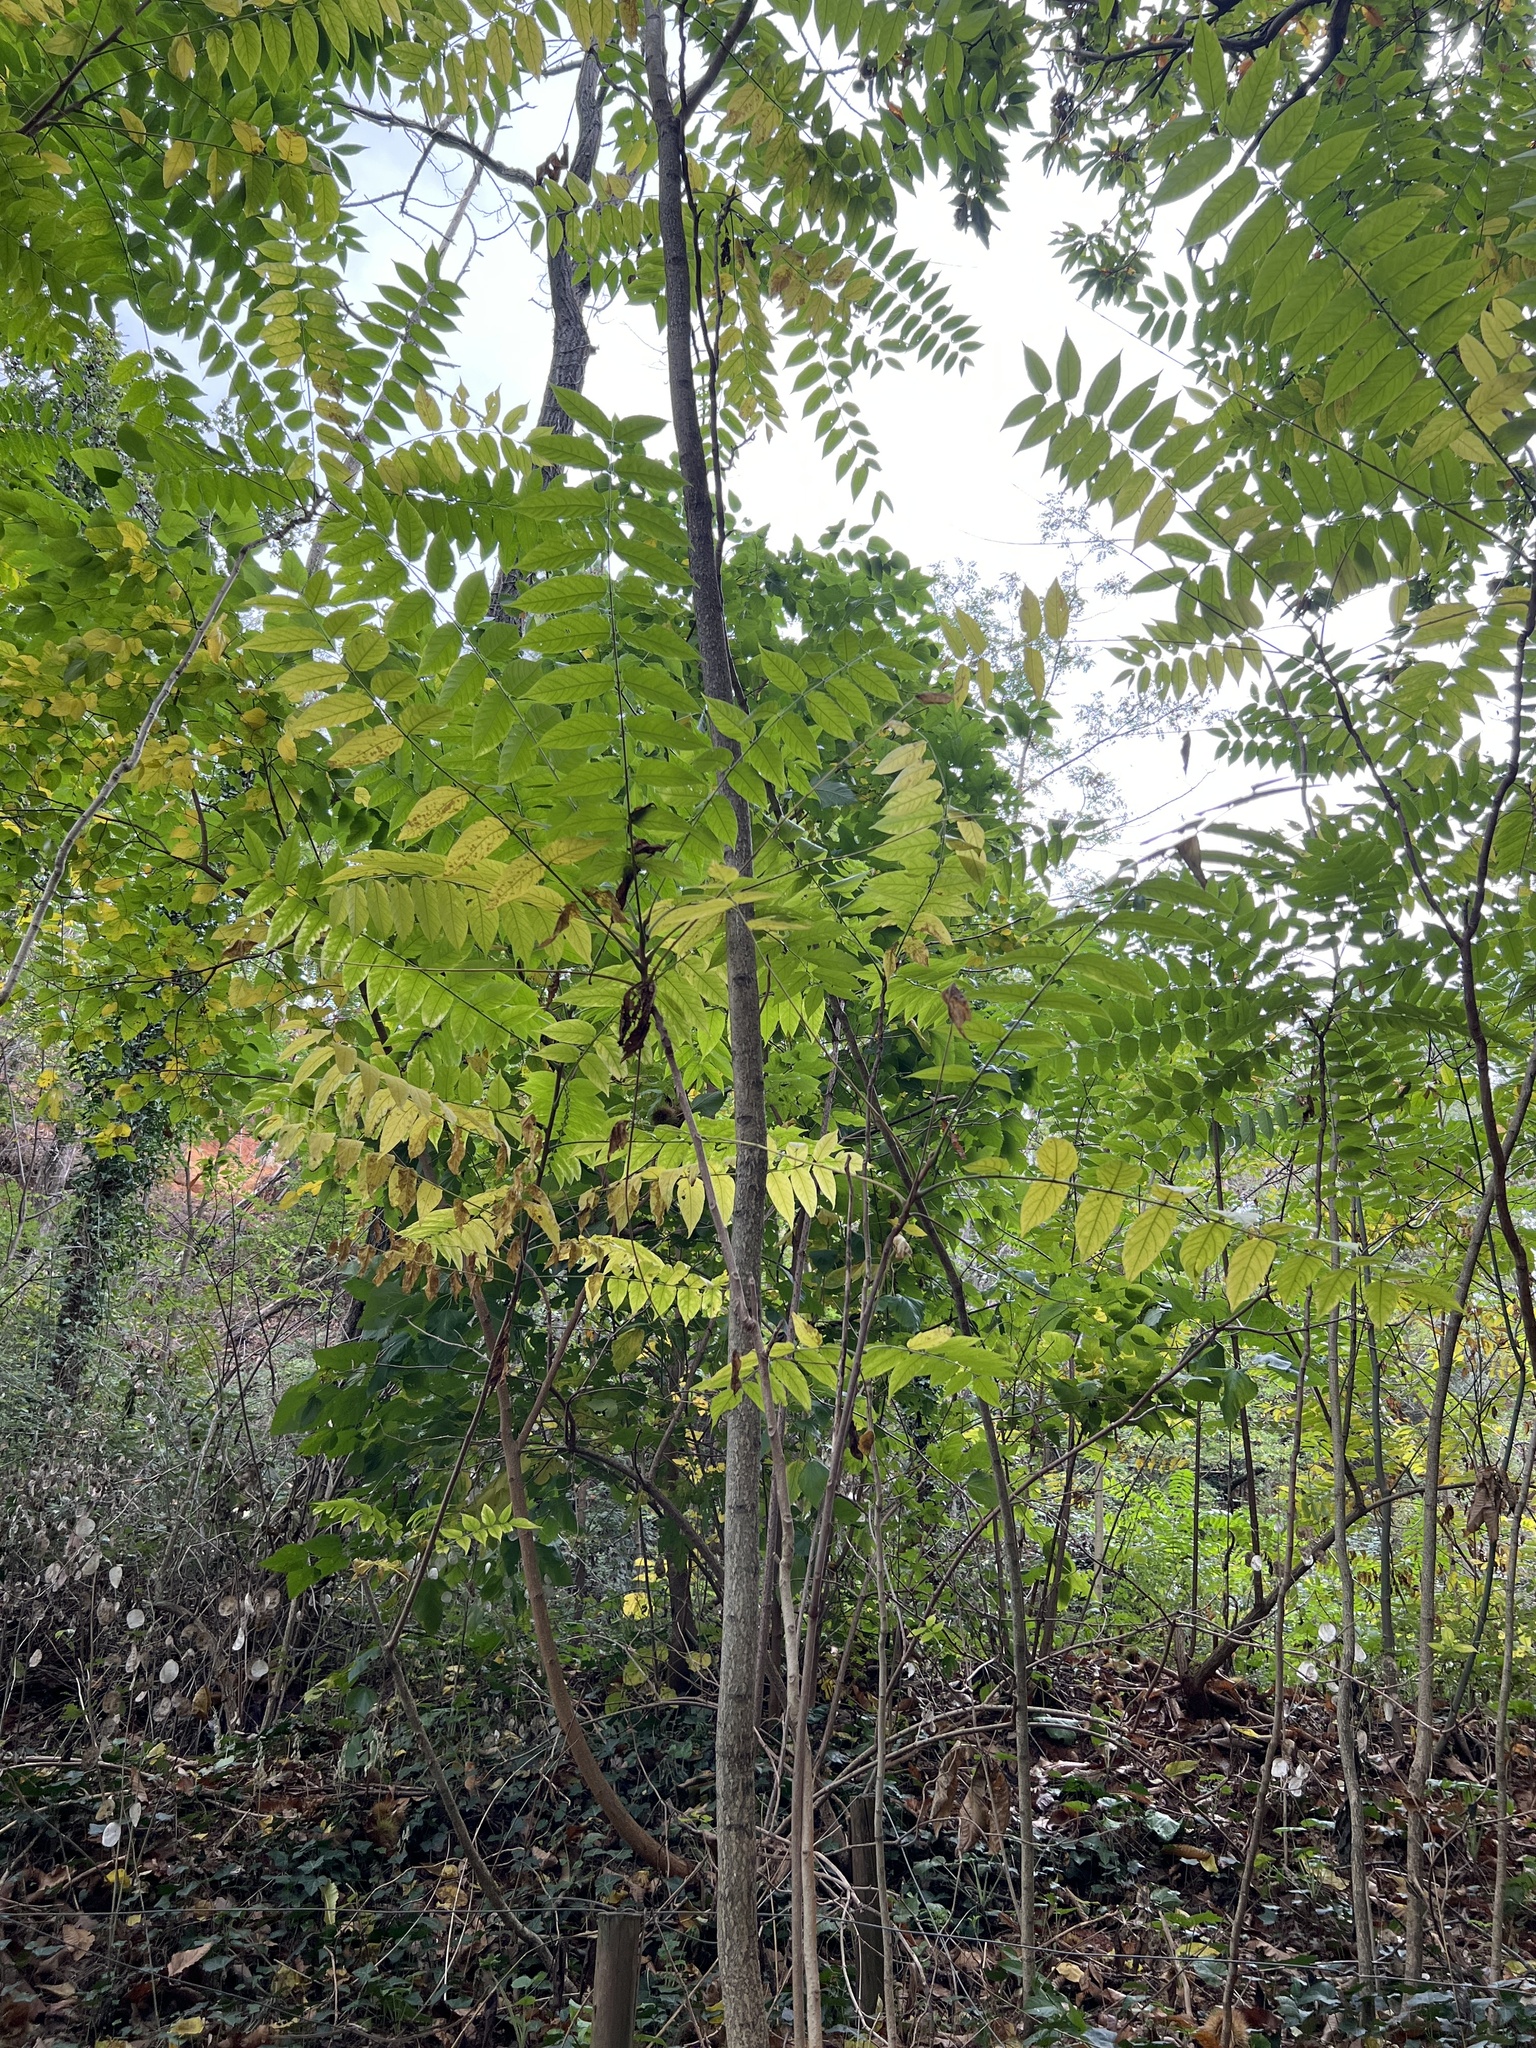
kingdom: Plantae
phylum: Tracheophyta
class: Magnoliopsida
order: Sapindales
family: Simaroubaceae
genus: Ailanthus
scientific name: Ailanthus altissima
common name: Tree-of-heaven
